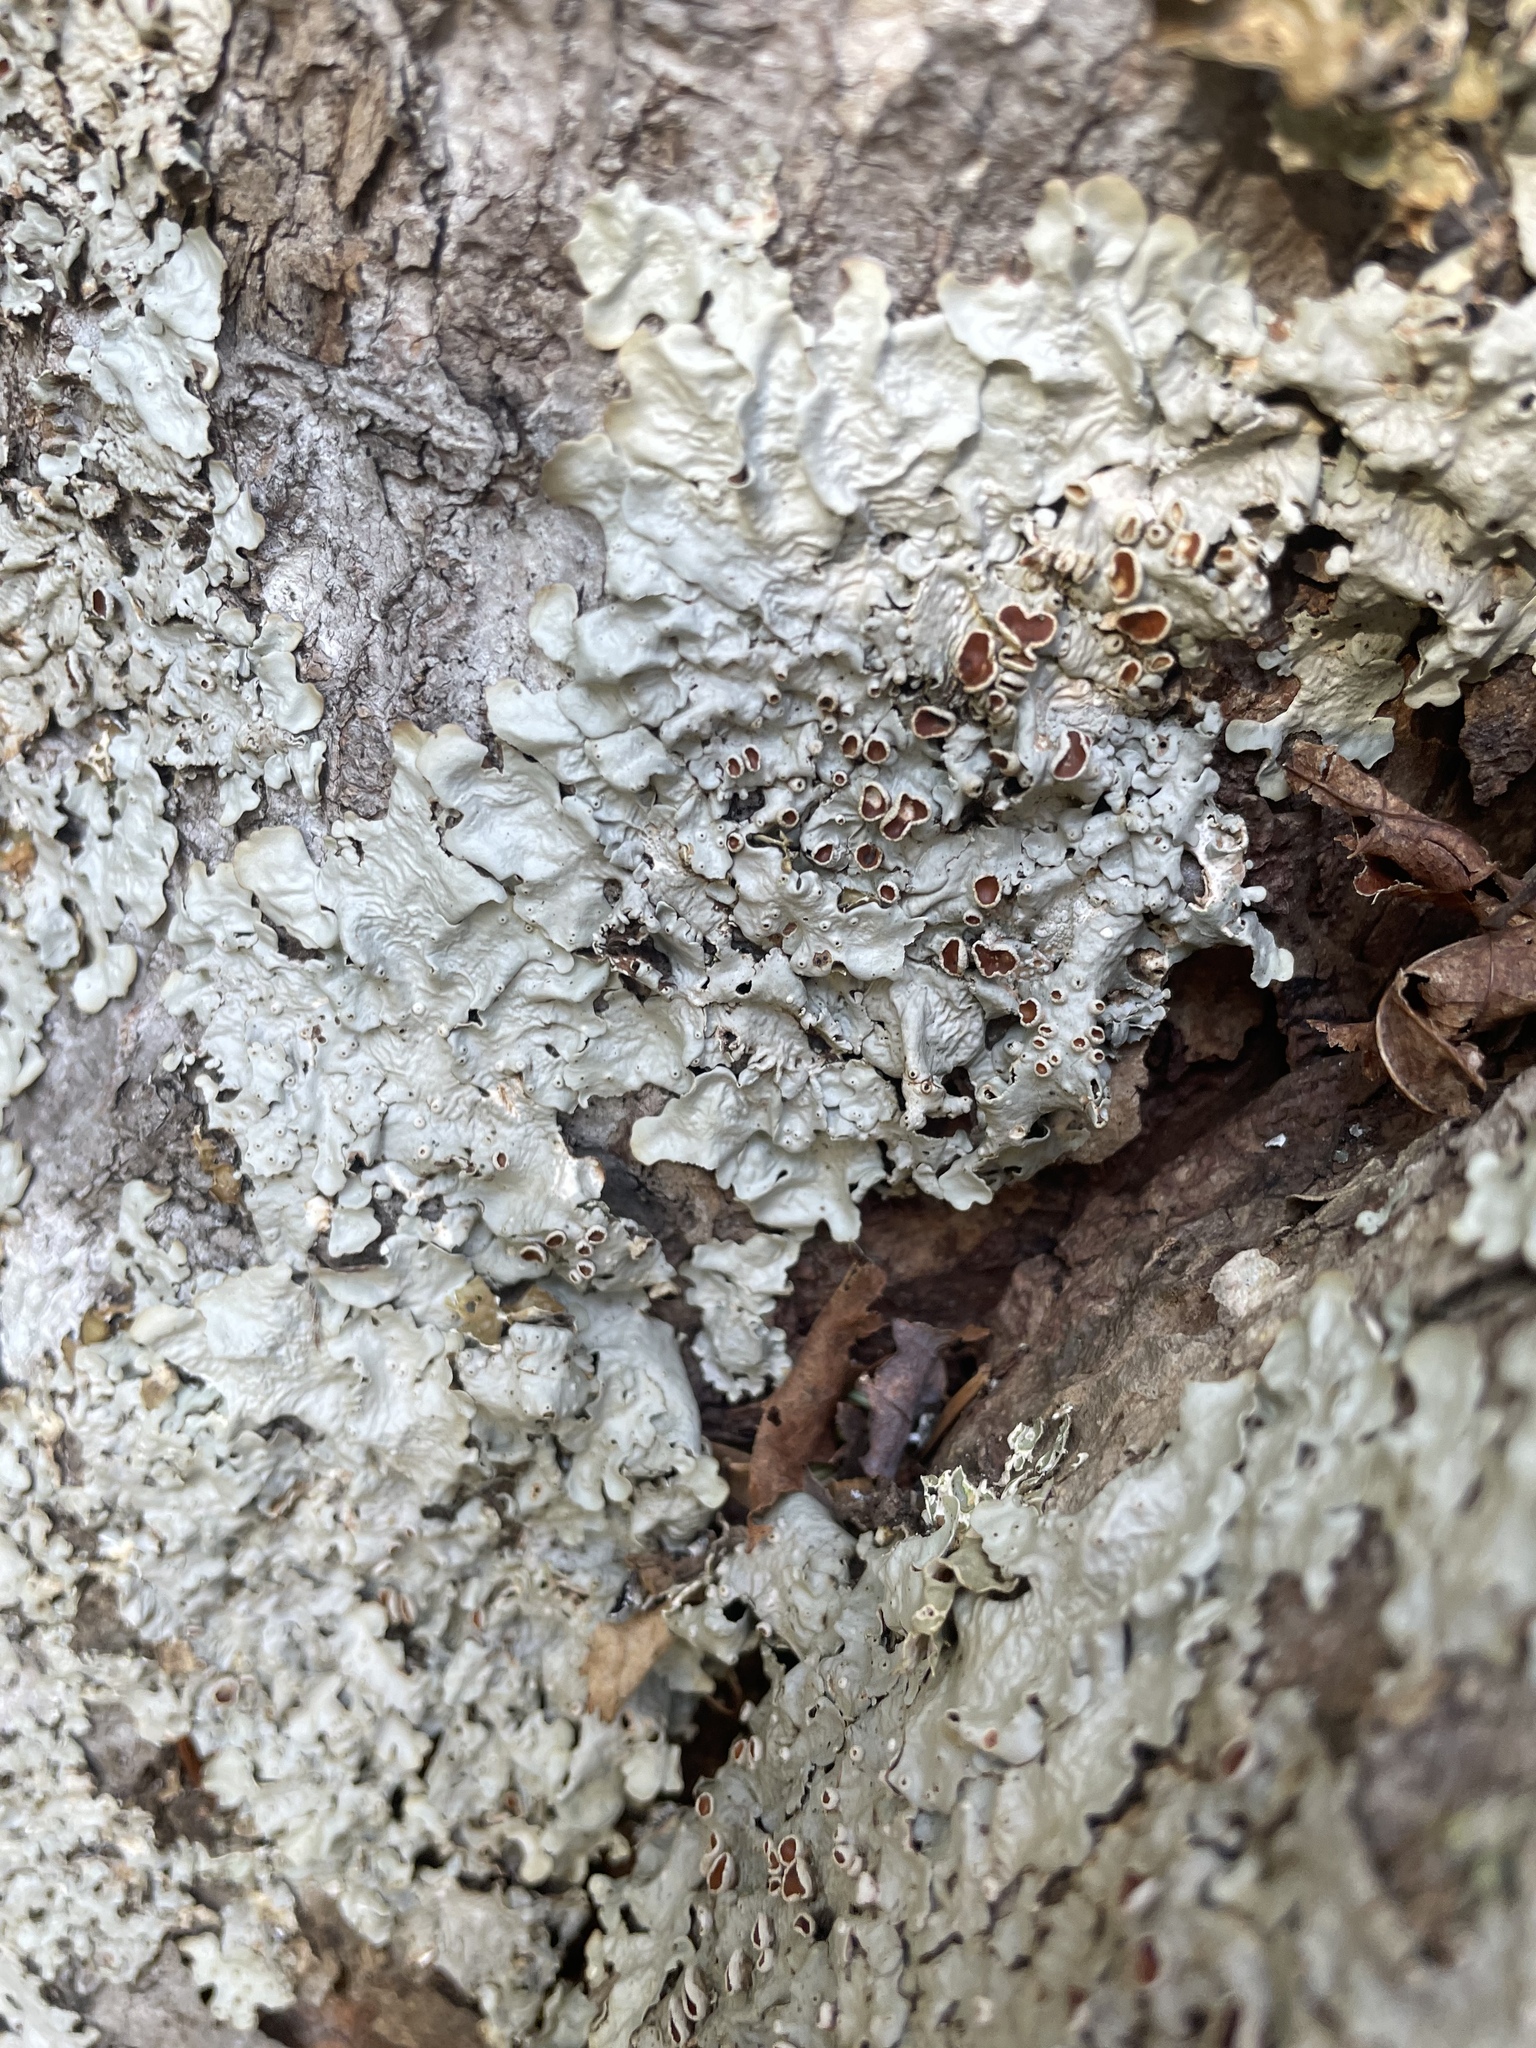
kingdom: Fungi
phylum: Ascomycota
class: Lecanoromycetes
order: Peltigerales
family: Lobariaceae
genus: Ricasolia
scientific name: Ricasolia quercizans
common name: Smooth lungwort
